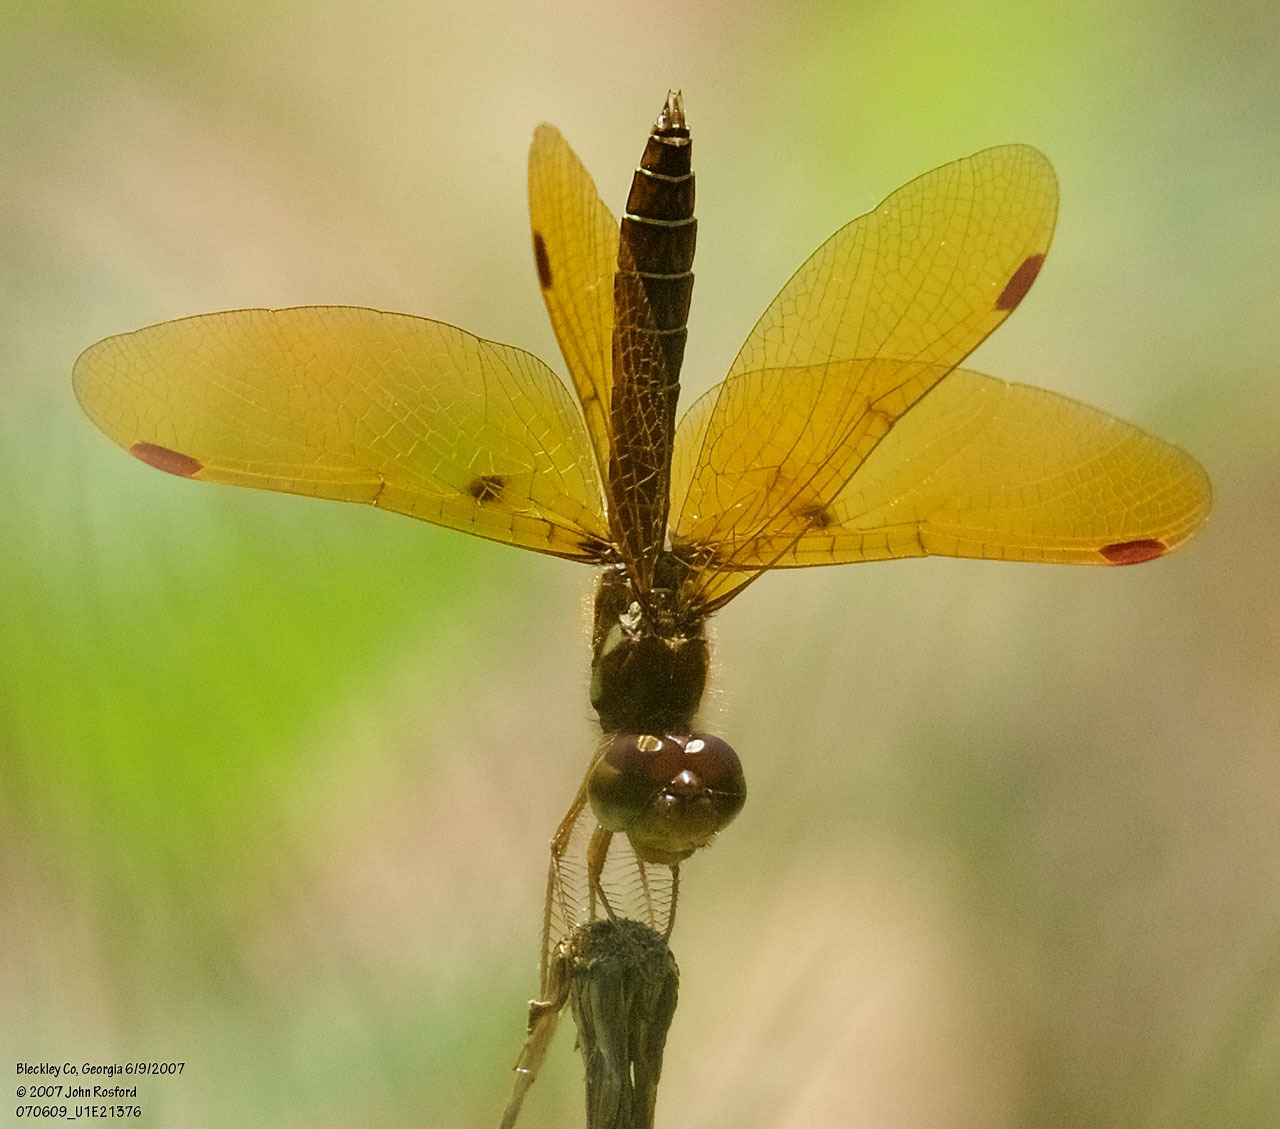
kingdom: Animalia
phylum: Arthropoda
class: Insecta
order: Odonata
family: Libellulidae
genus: Perithemis
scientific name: Perithemis tenera
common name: Eastern amberwing
